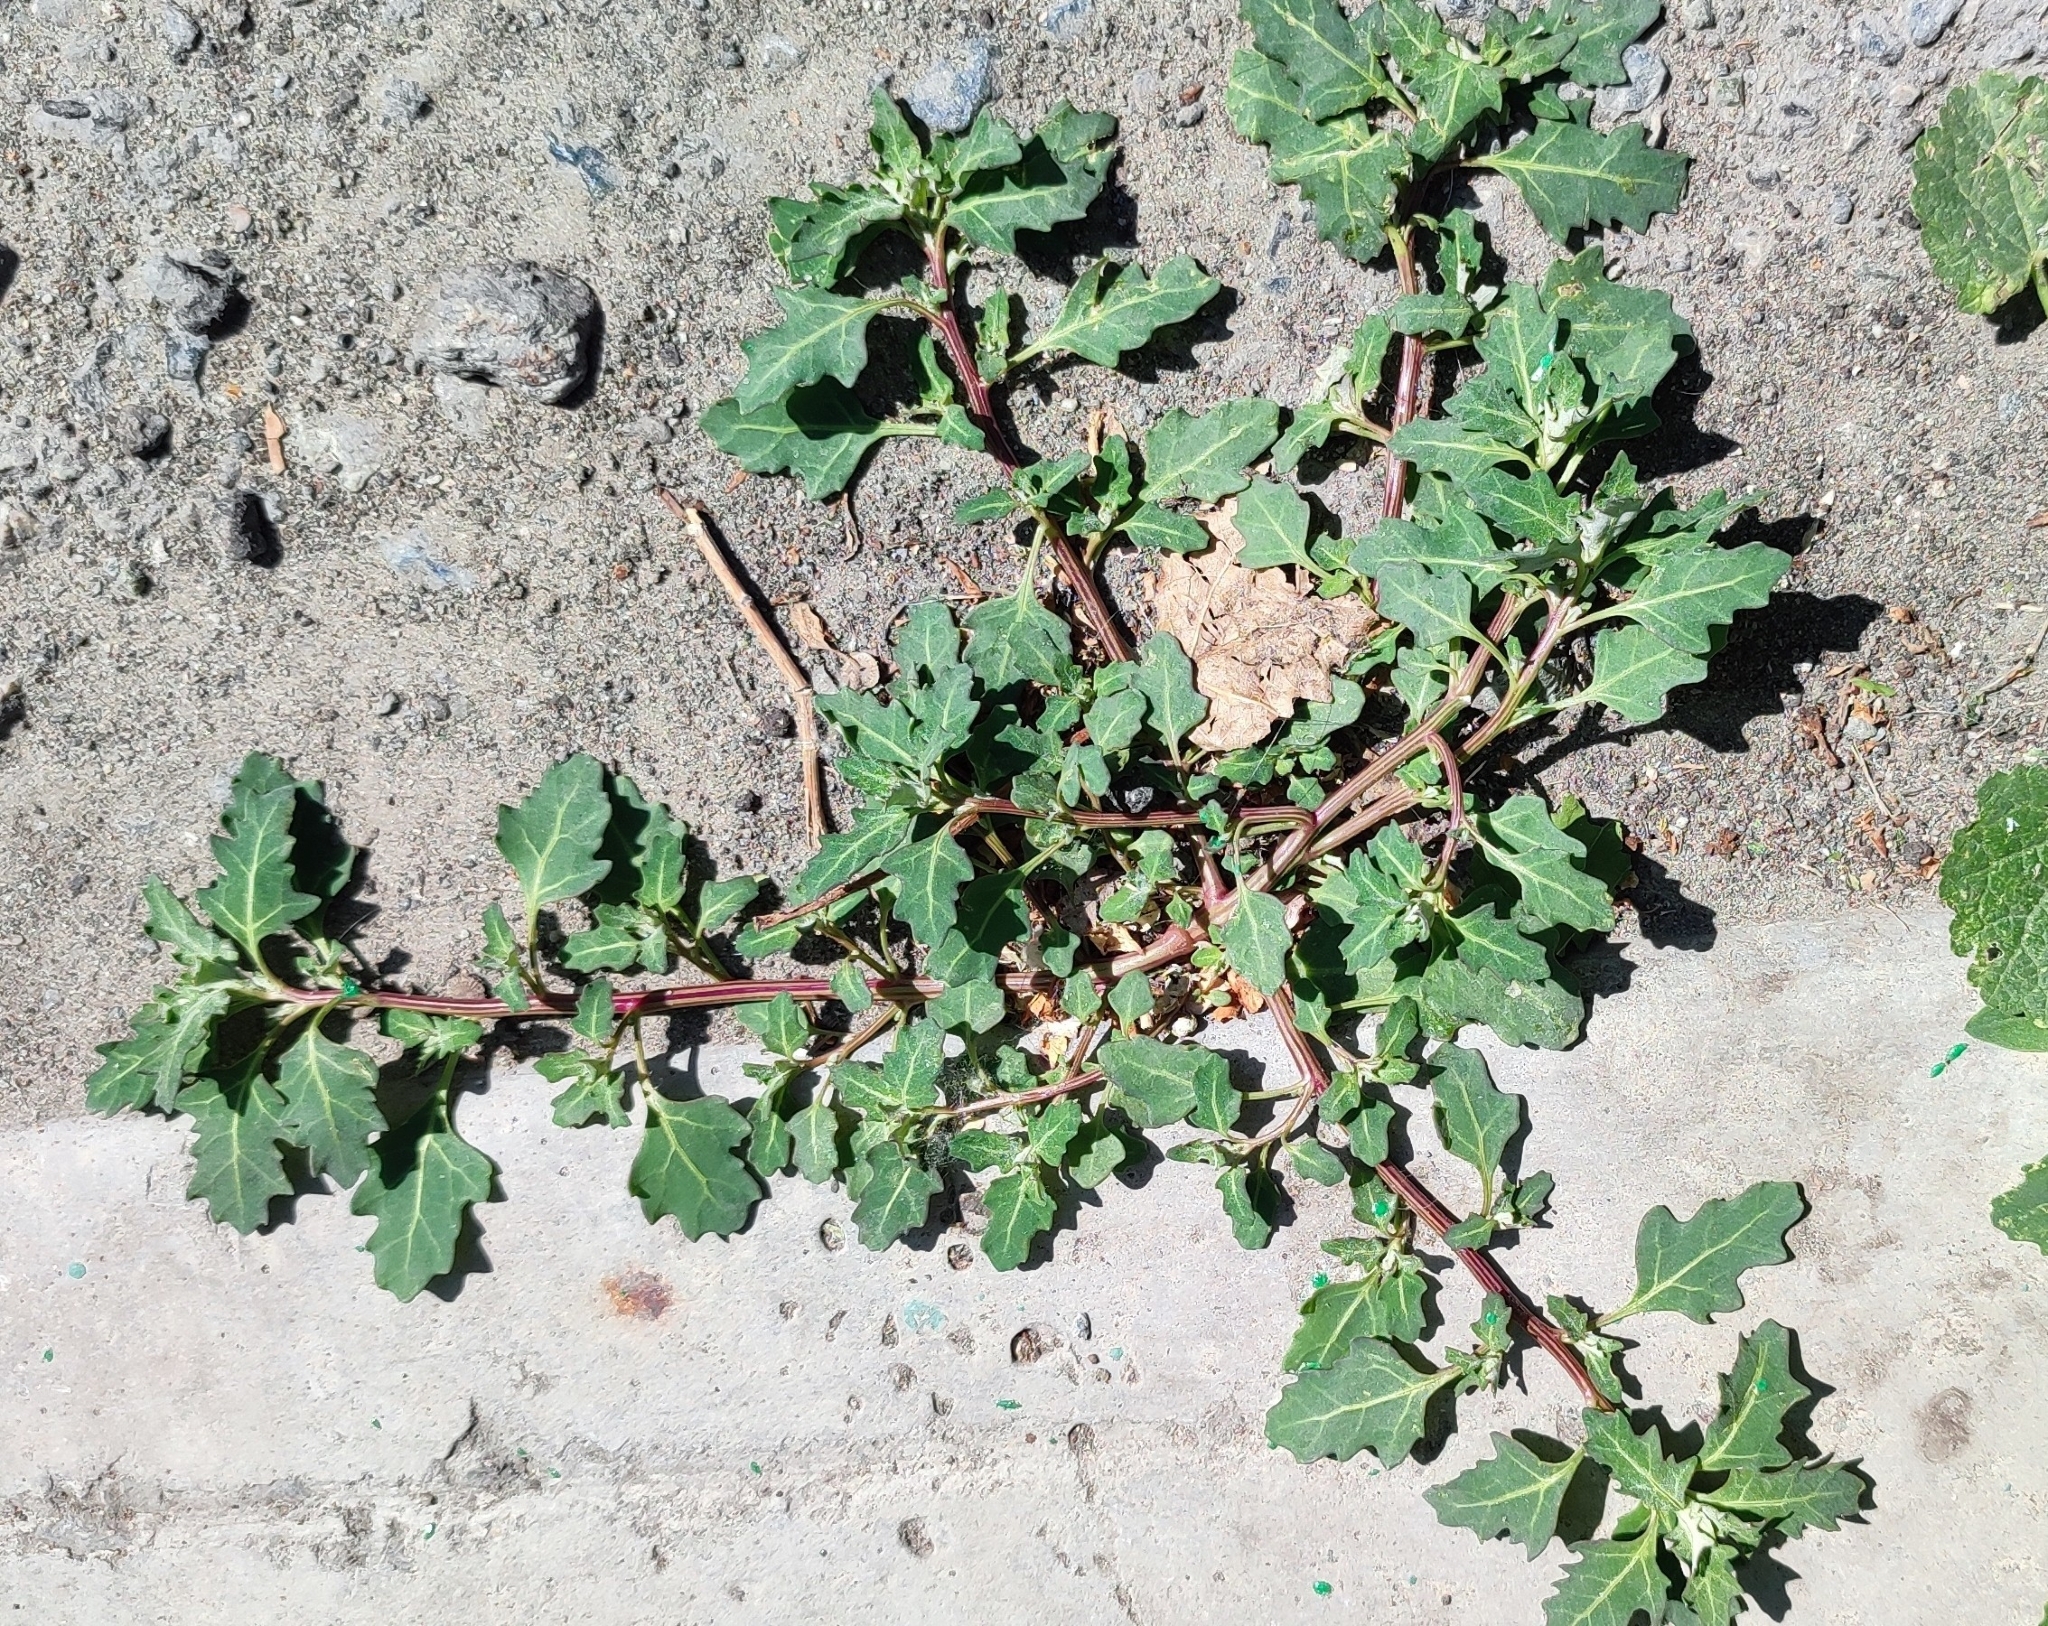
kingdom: Plantae
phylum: Tracheophyta
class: Magnoliopsida
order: Caryophyllales
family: Amaranthaceae
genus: Oxybasis
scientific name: Oxybasis glauca
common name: Glaucous goosefoot
